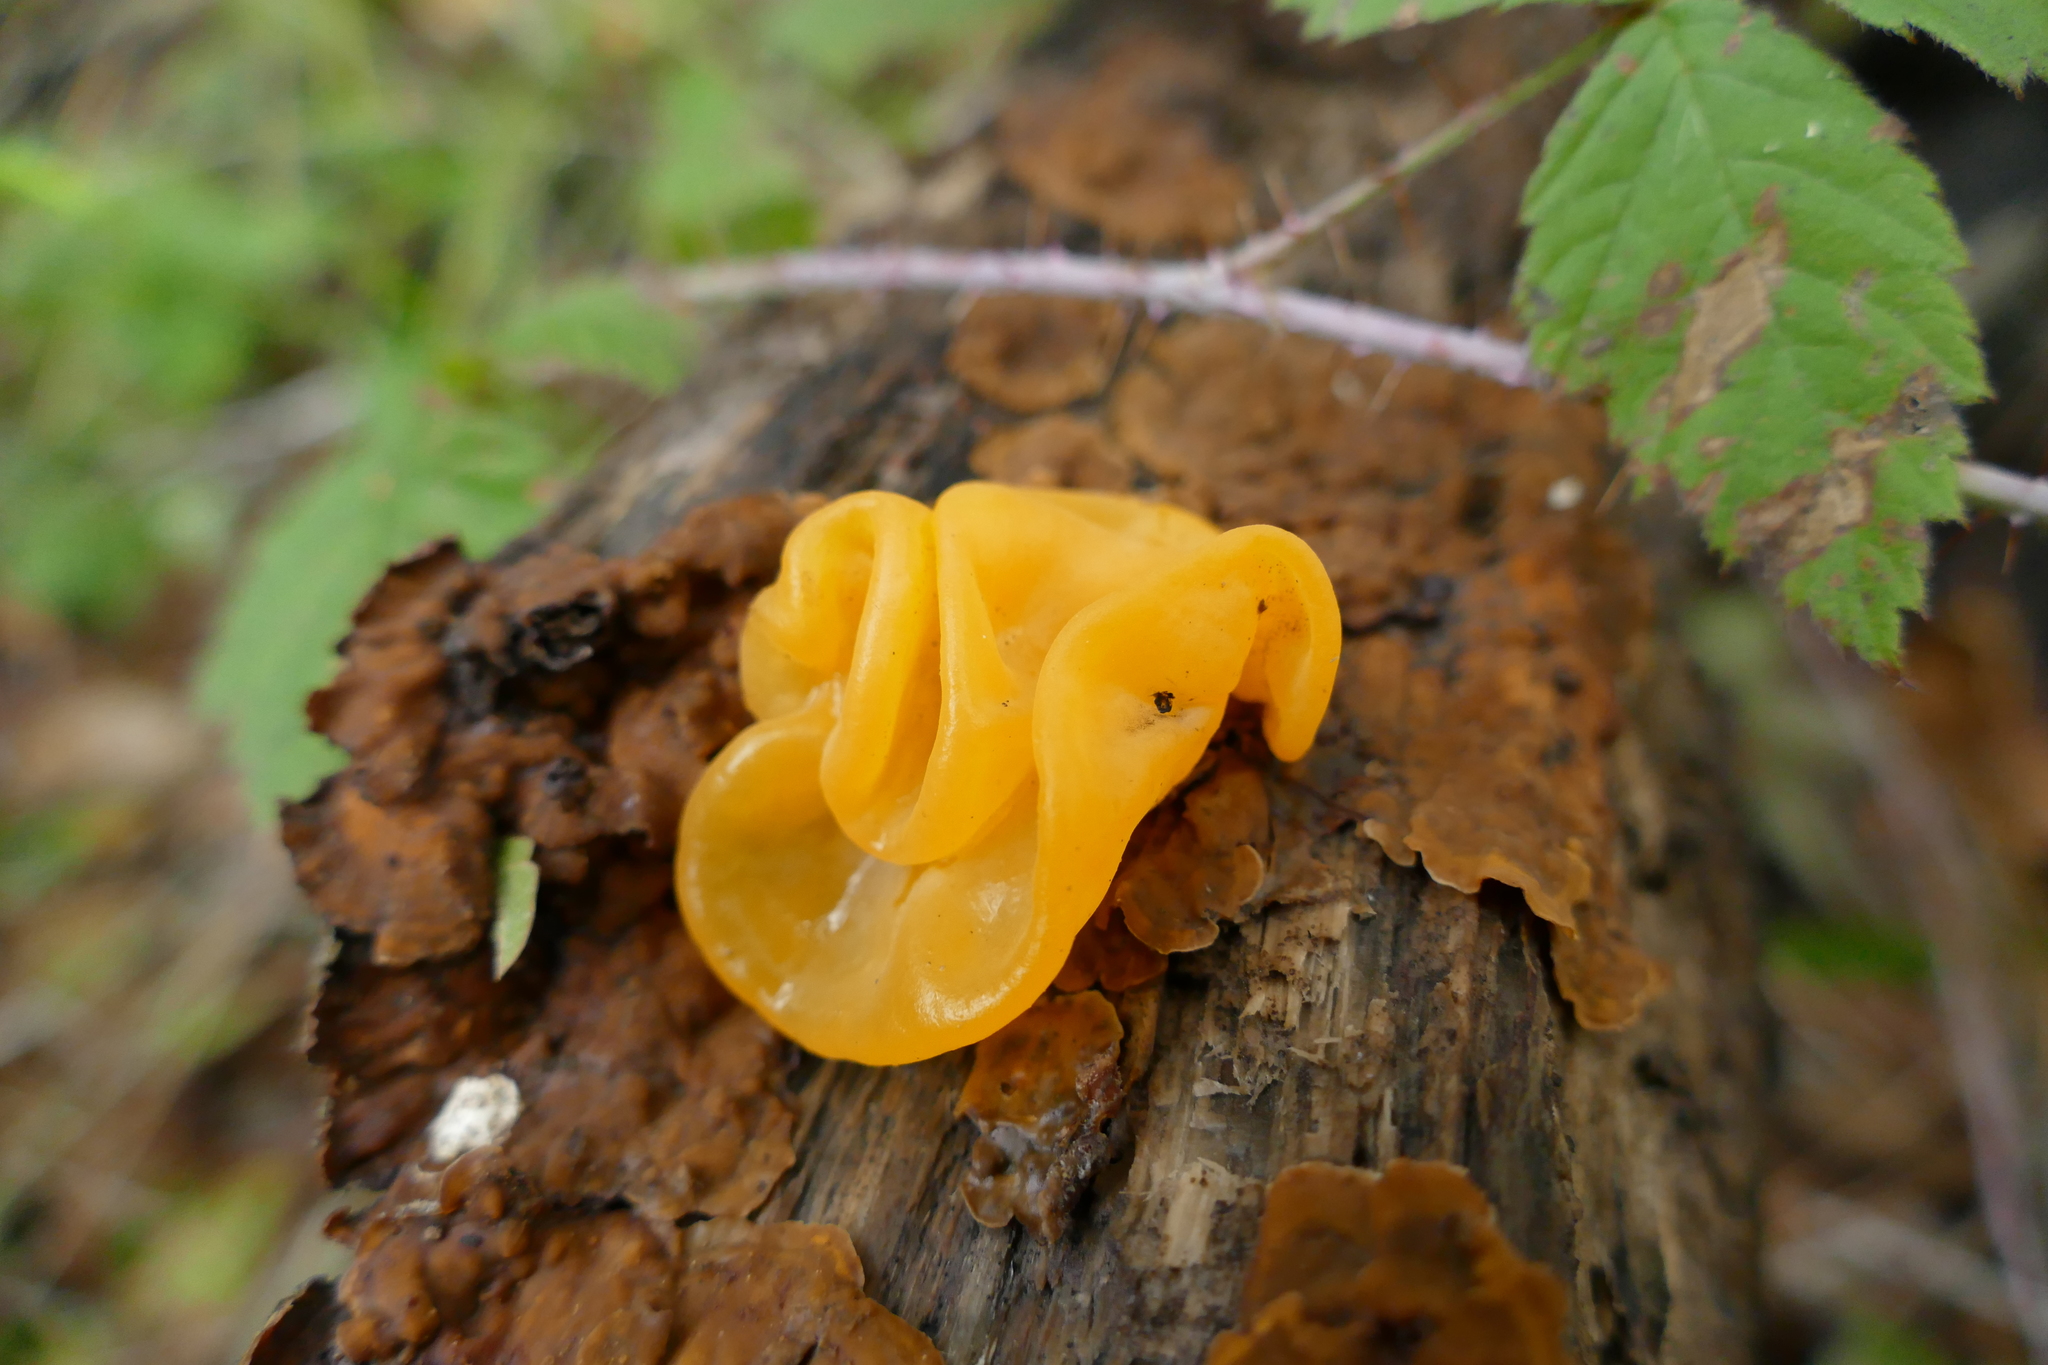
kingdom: Fungi
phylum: Basidiomycota
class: Tremellomycetes
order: Tremellales
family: Naemateliaceae
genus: Naematelia
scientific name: Naematelia aurantia
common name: Golden ear
